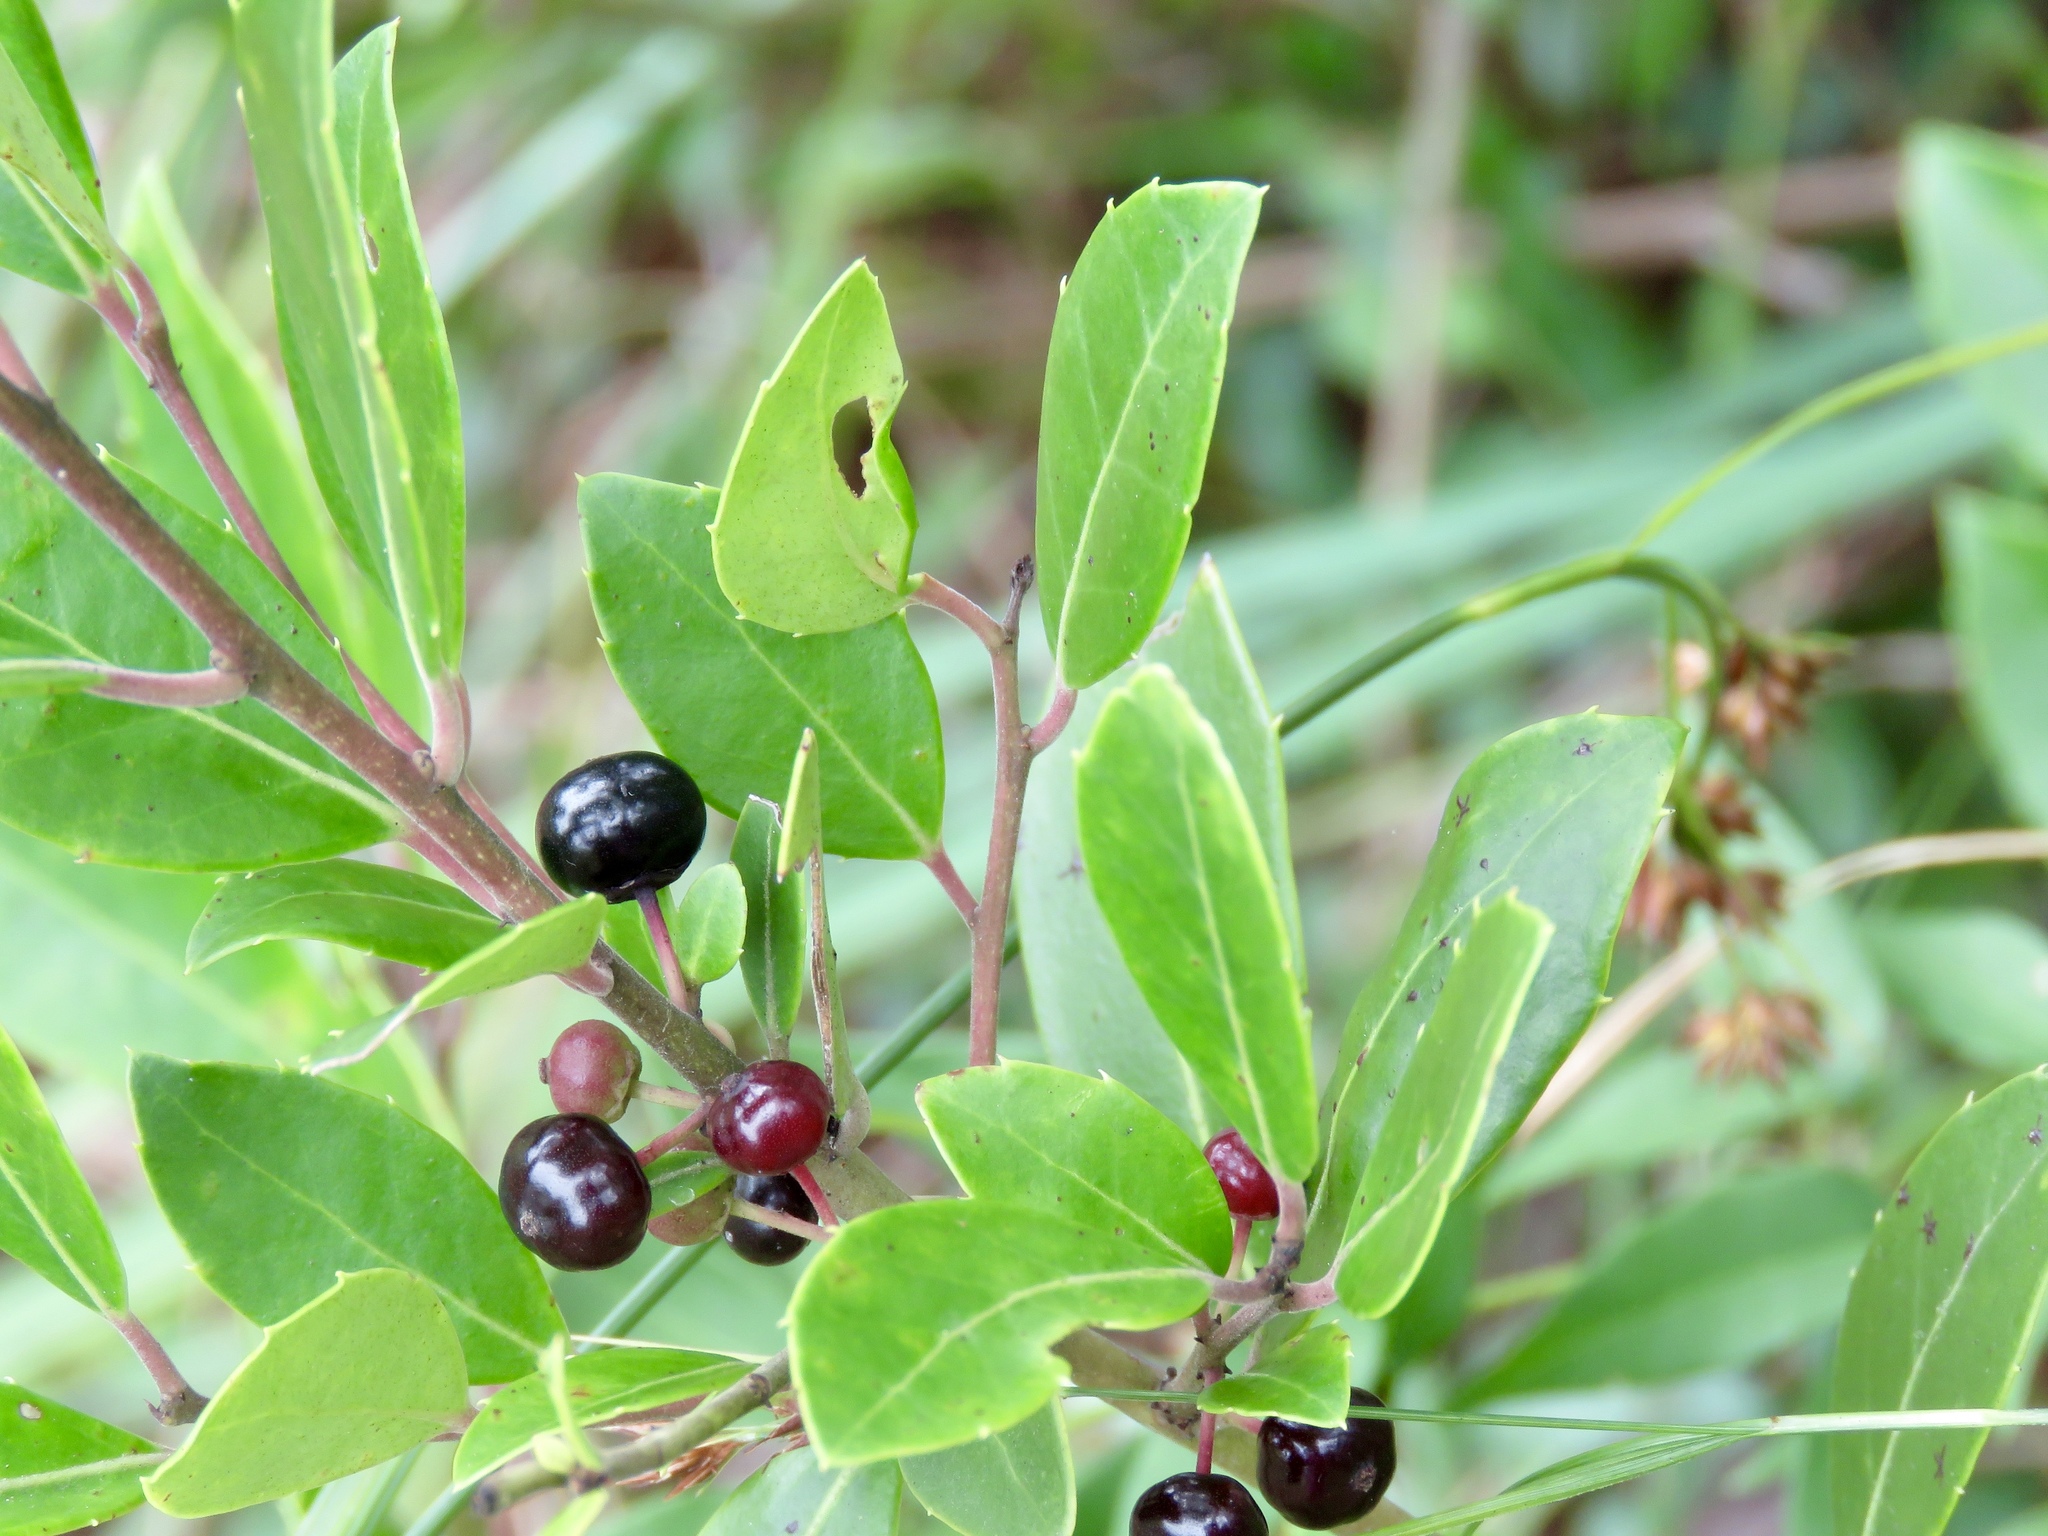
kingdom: Plantae
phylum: Tracheophyta
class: Magnoliopsida
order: Aquifoliales
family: Aquifoliaceae
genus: Ilex
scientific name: Ilex coriacea
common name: Sweet gallberry
